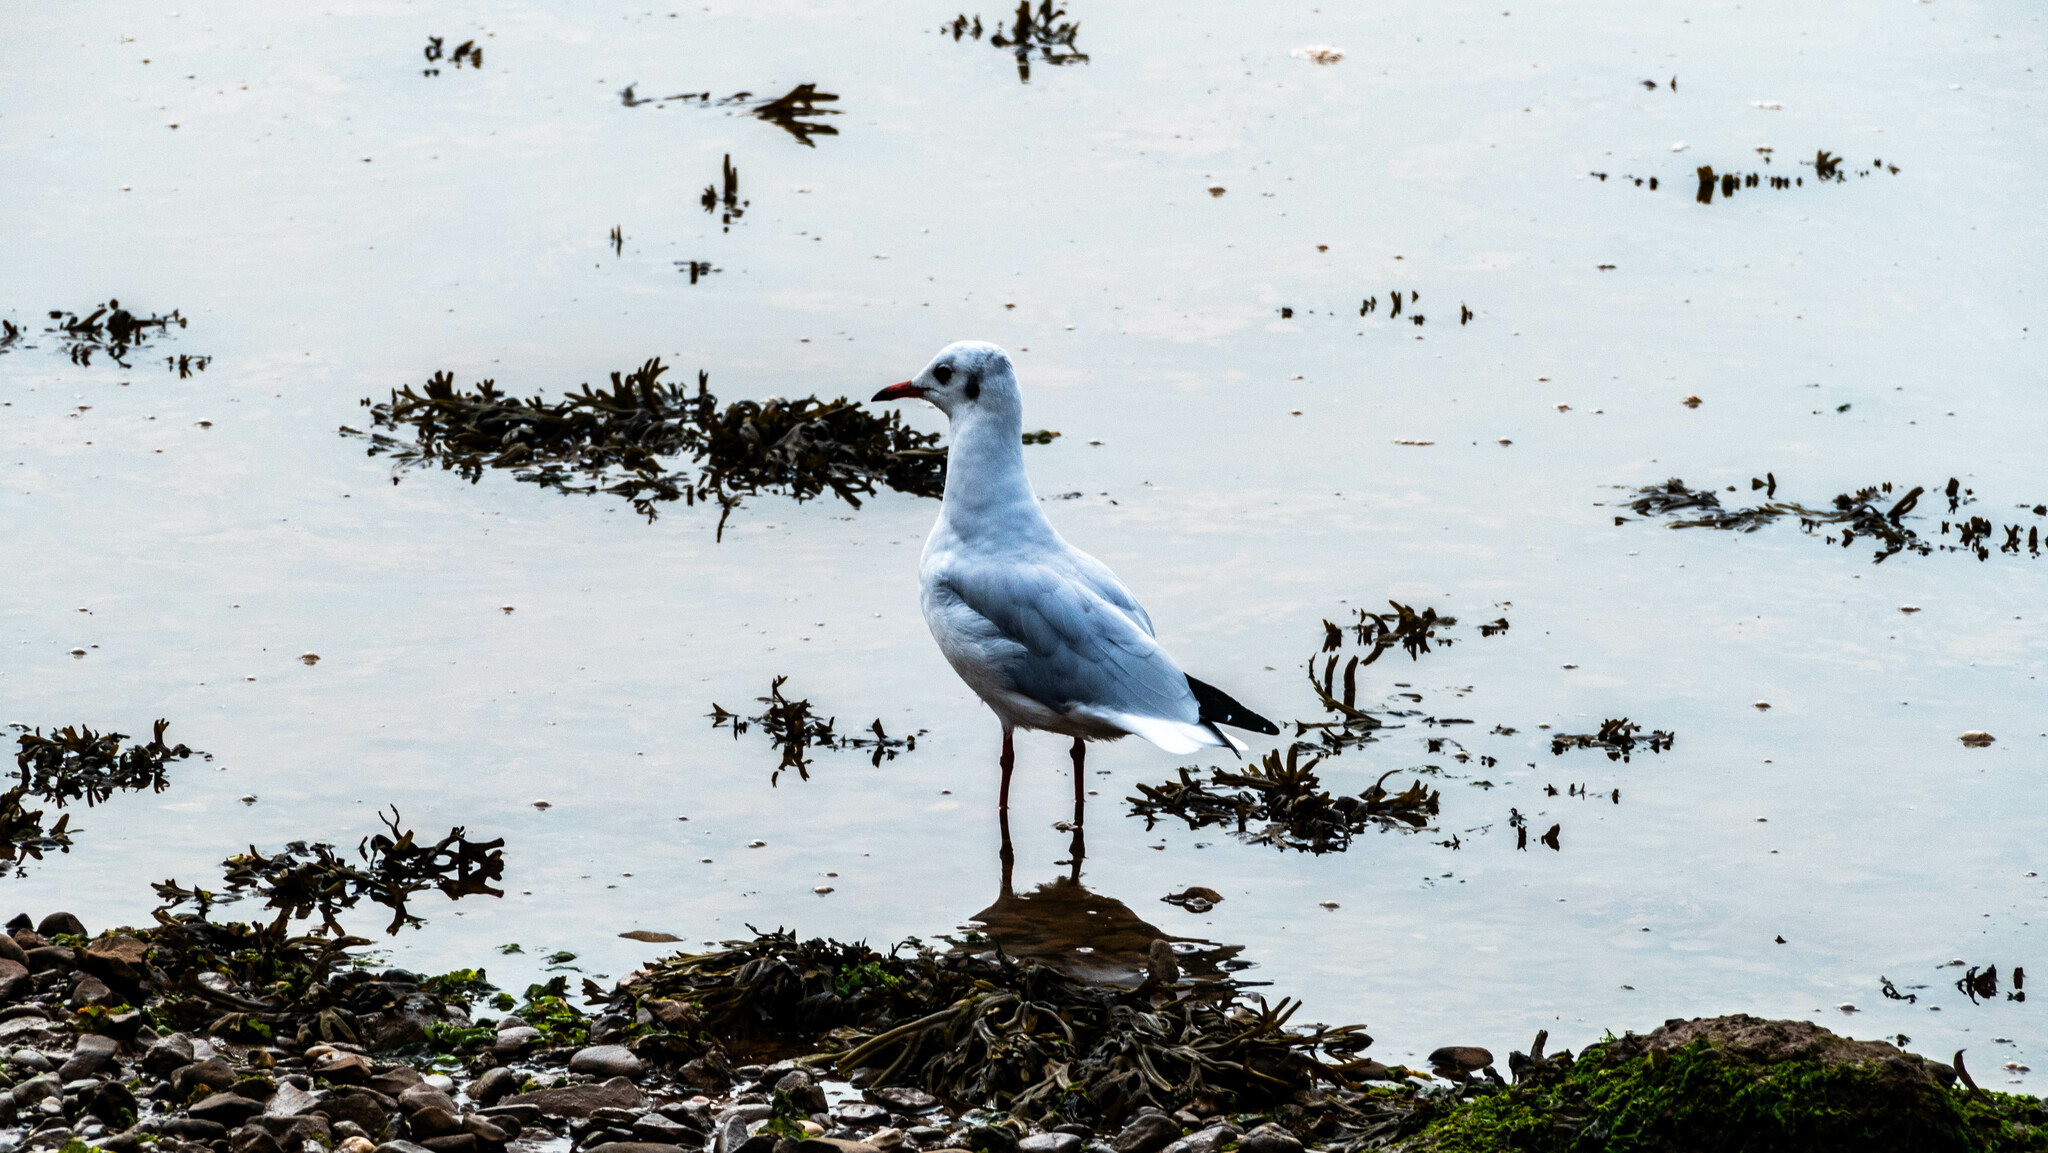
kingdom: Animalia
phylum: Chordata
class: Aves
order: Charadriiformes
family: Laridae
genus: Chroicocephalus
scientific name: Chroicocephalus ridibundus
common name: Black-headed gull
